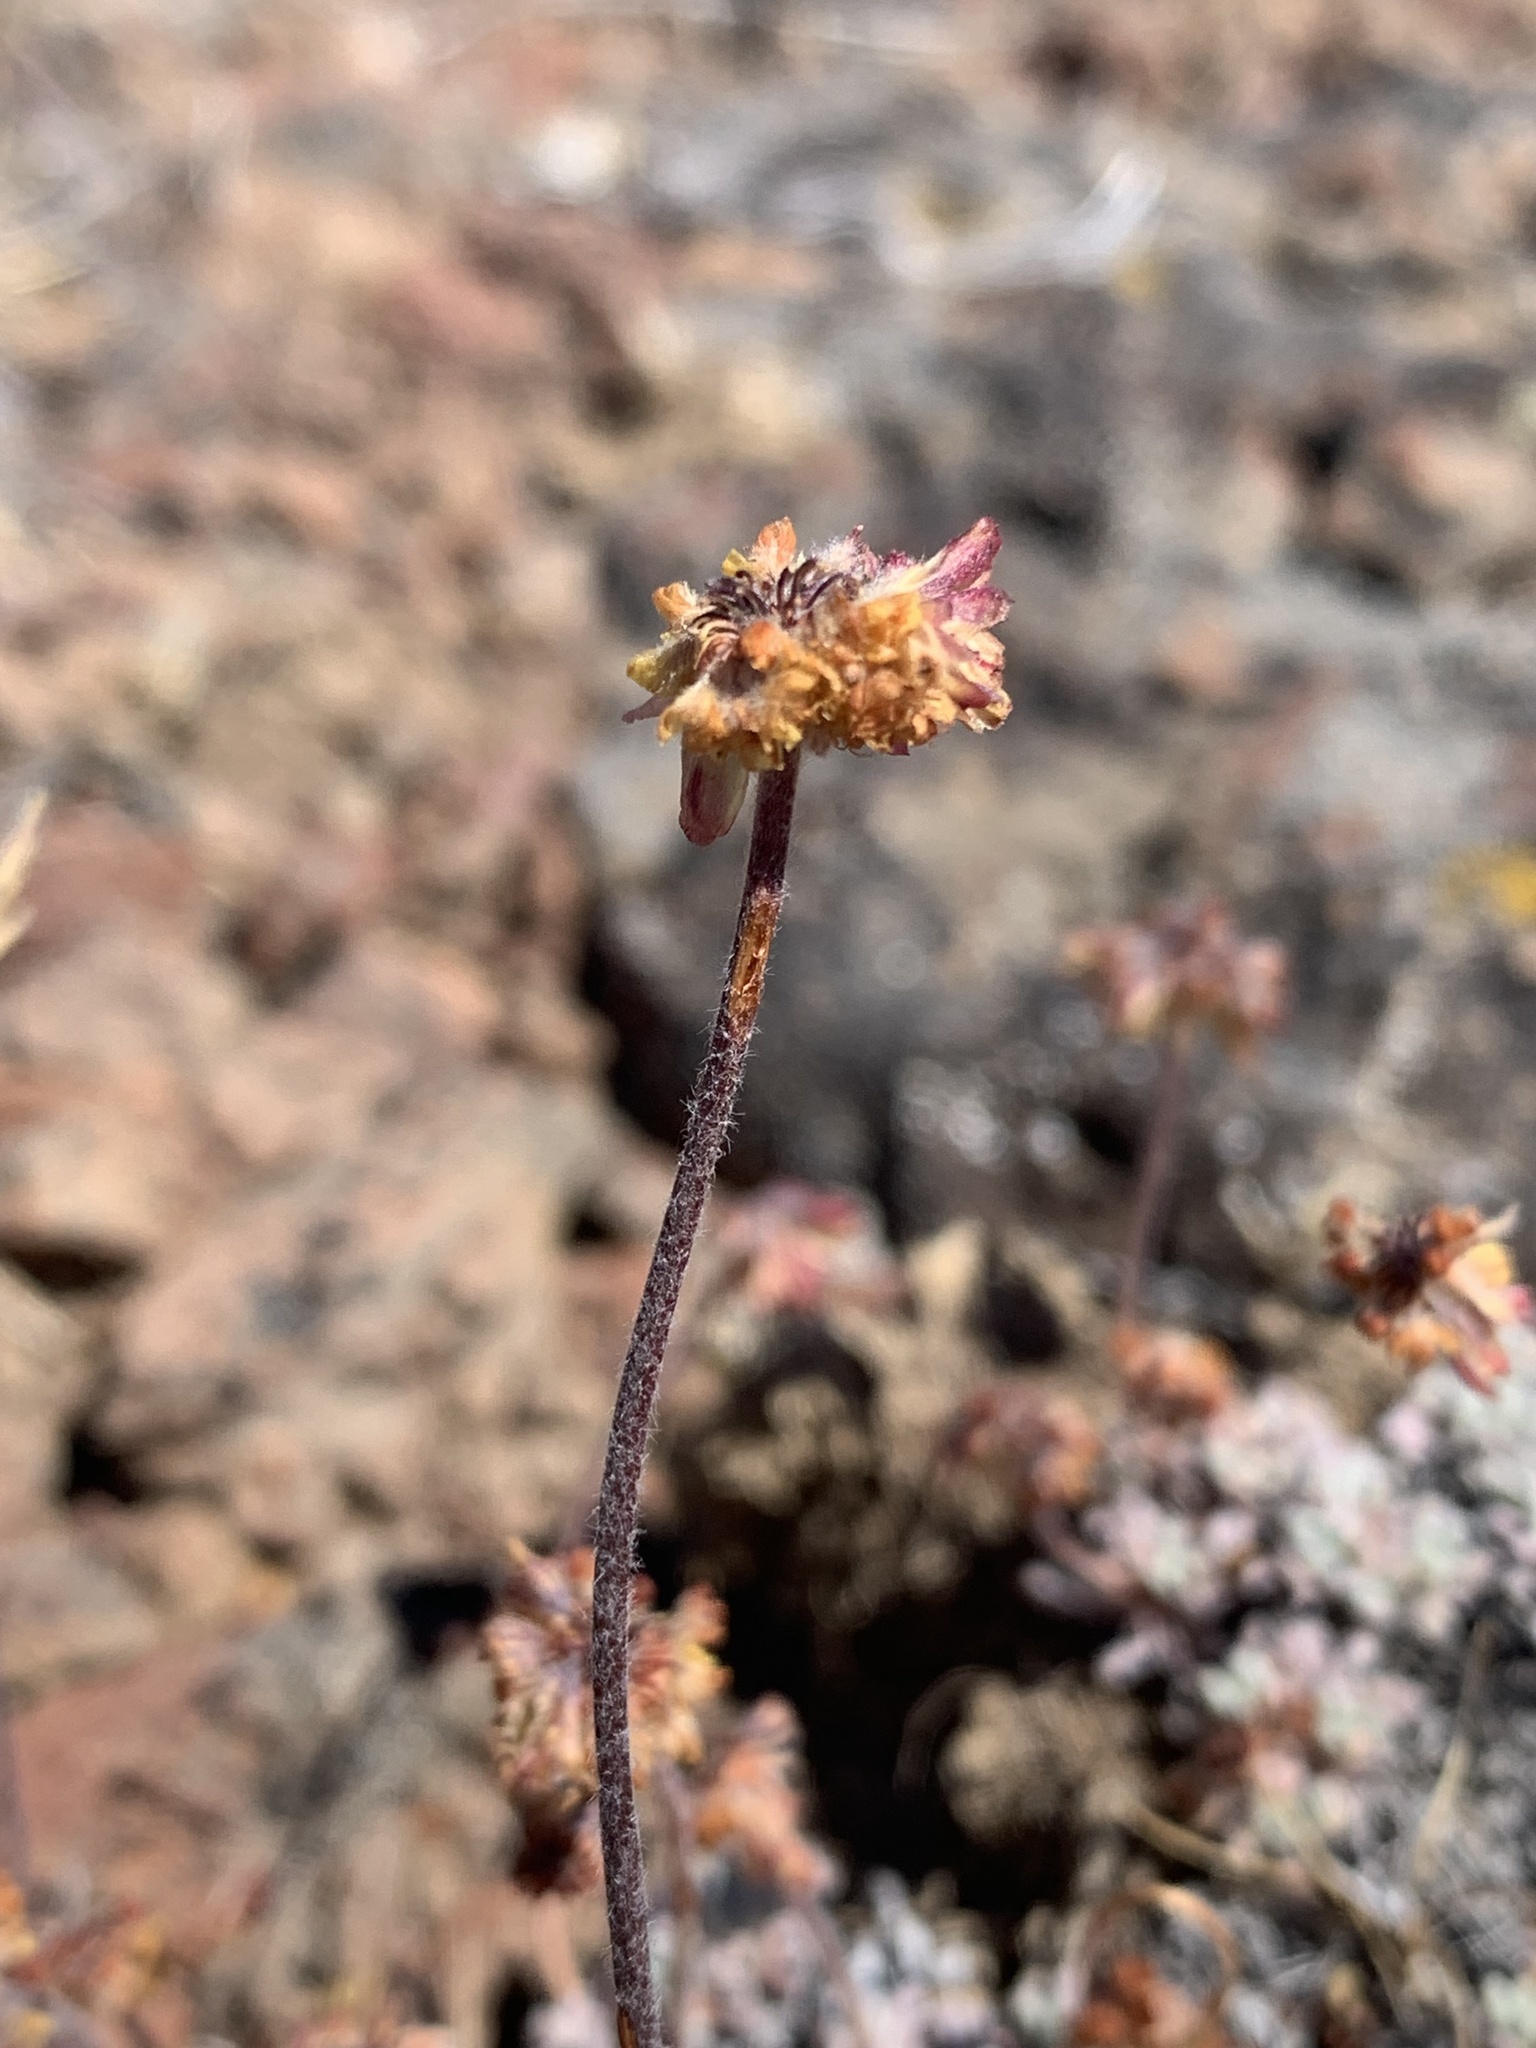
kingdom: Plantae
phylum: Tracheophyta
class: Magnoliopsida
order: Caryophyllales
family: Polygonaceae
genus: Eriogonum
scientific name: Eriogonum caespitosum
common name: Matted wild buckwheat
